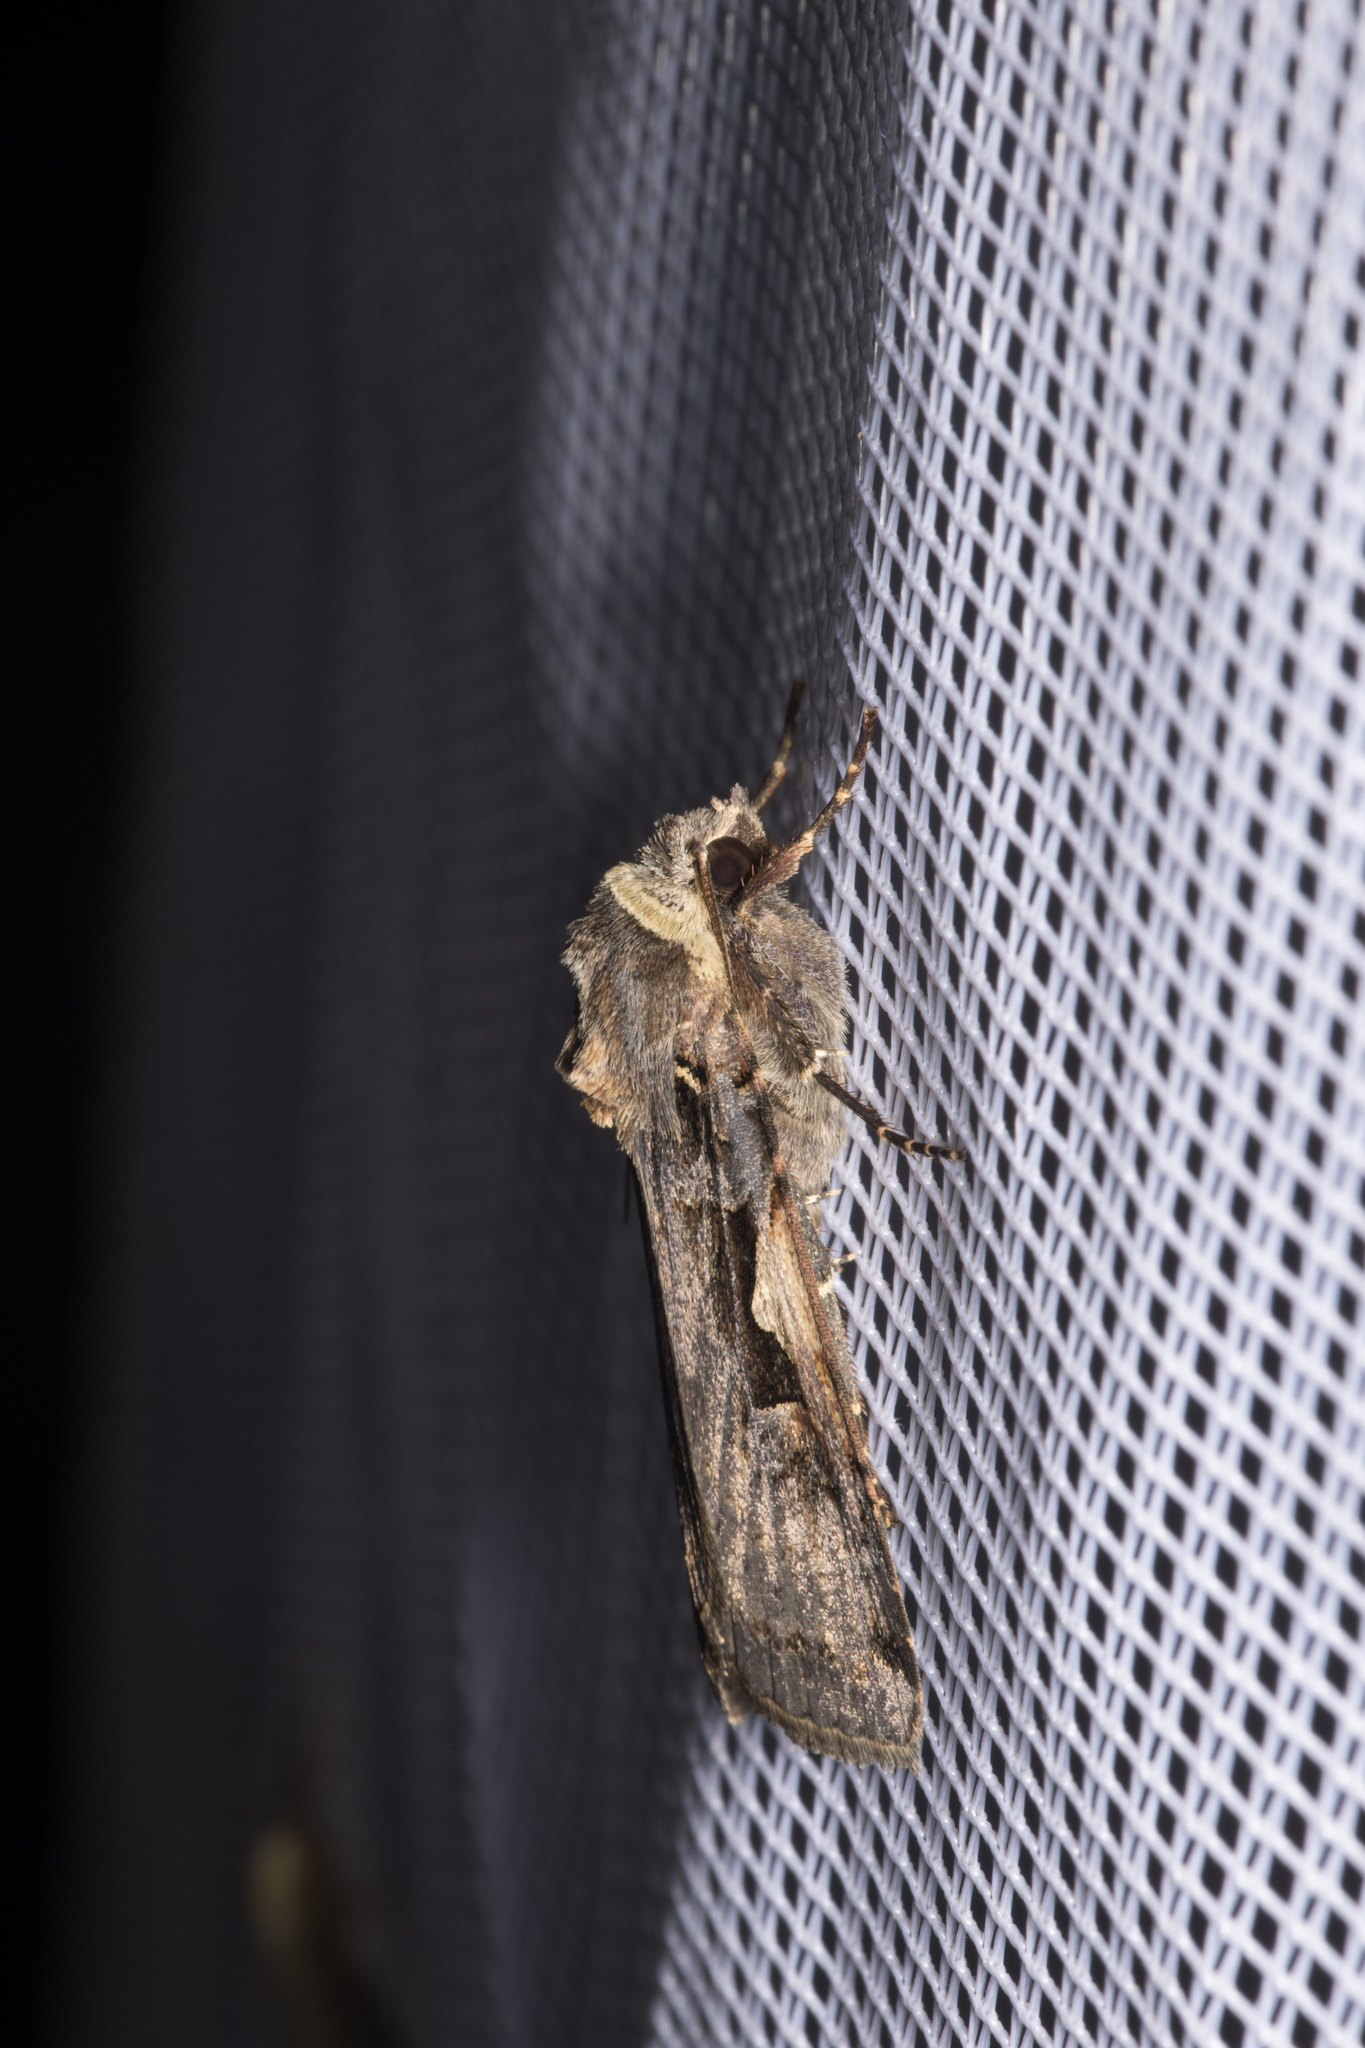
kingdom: Animalia
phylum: Arthropoda
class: Insecta
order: Lepidoptera
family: Noctuidae
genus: Xestia
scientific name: Xestia c-nigrum
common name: Setaceous hebrew character
